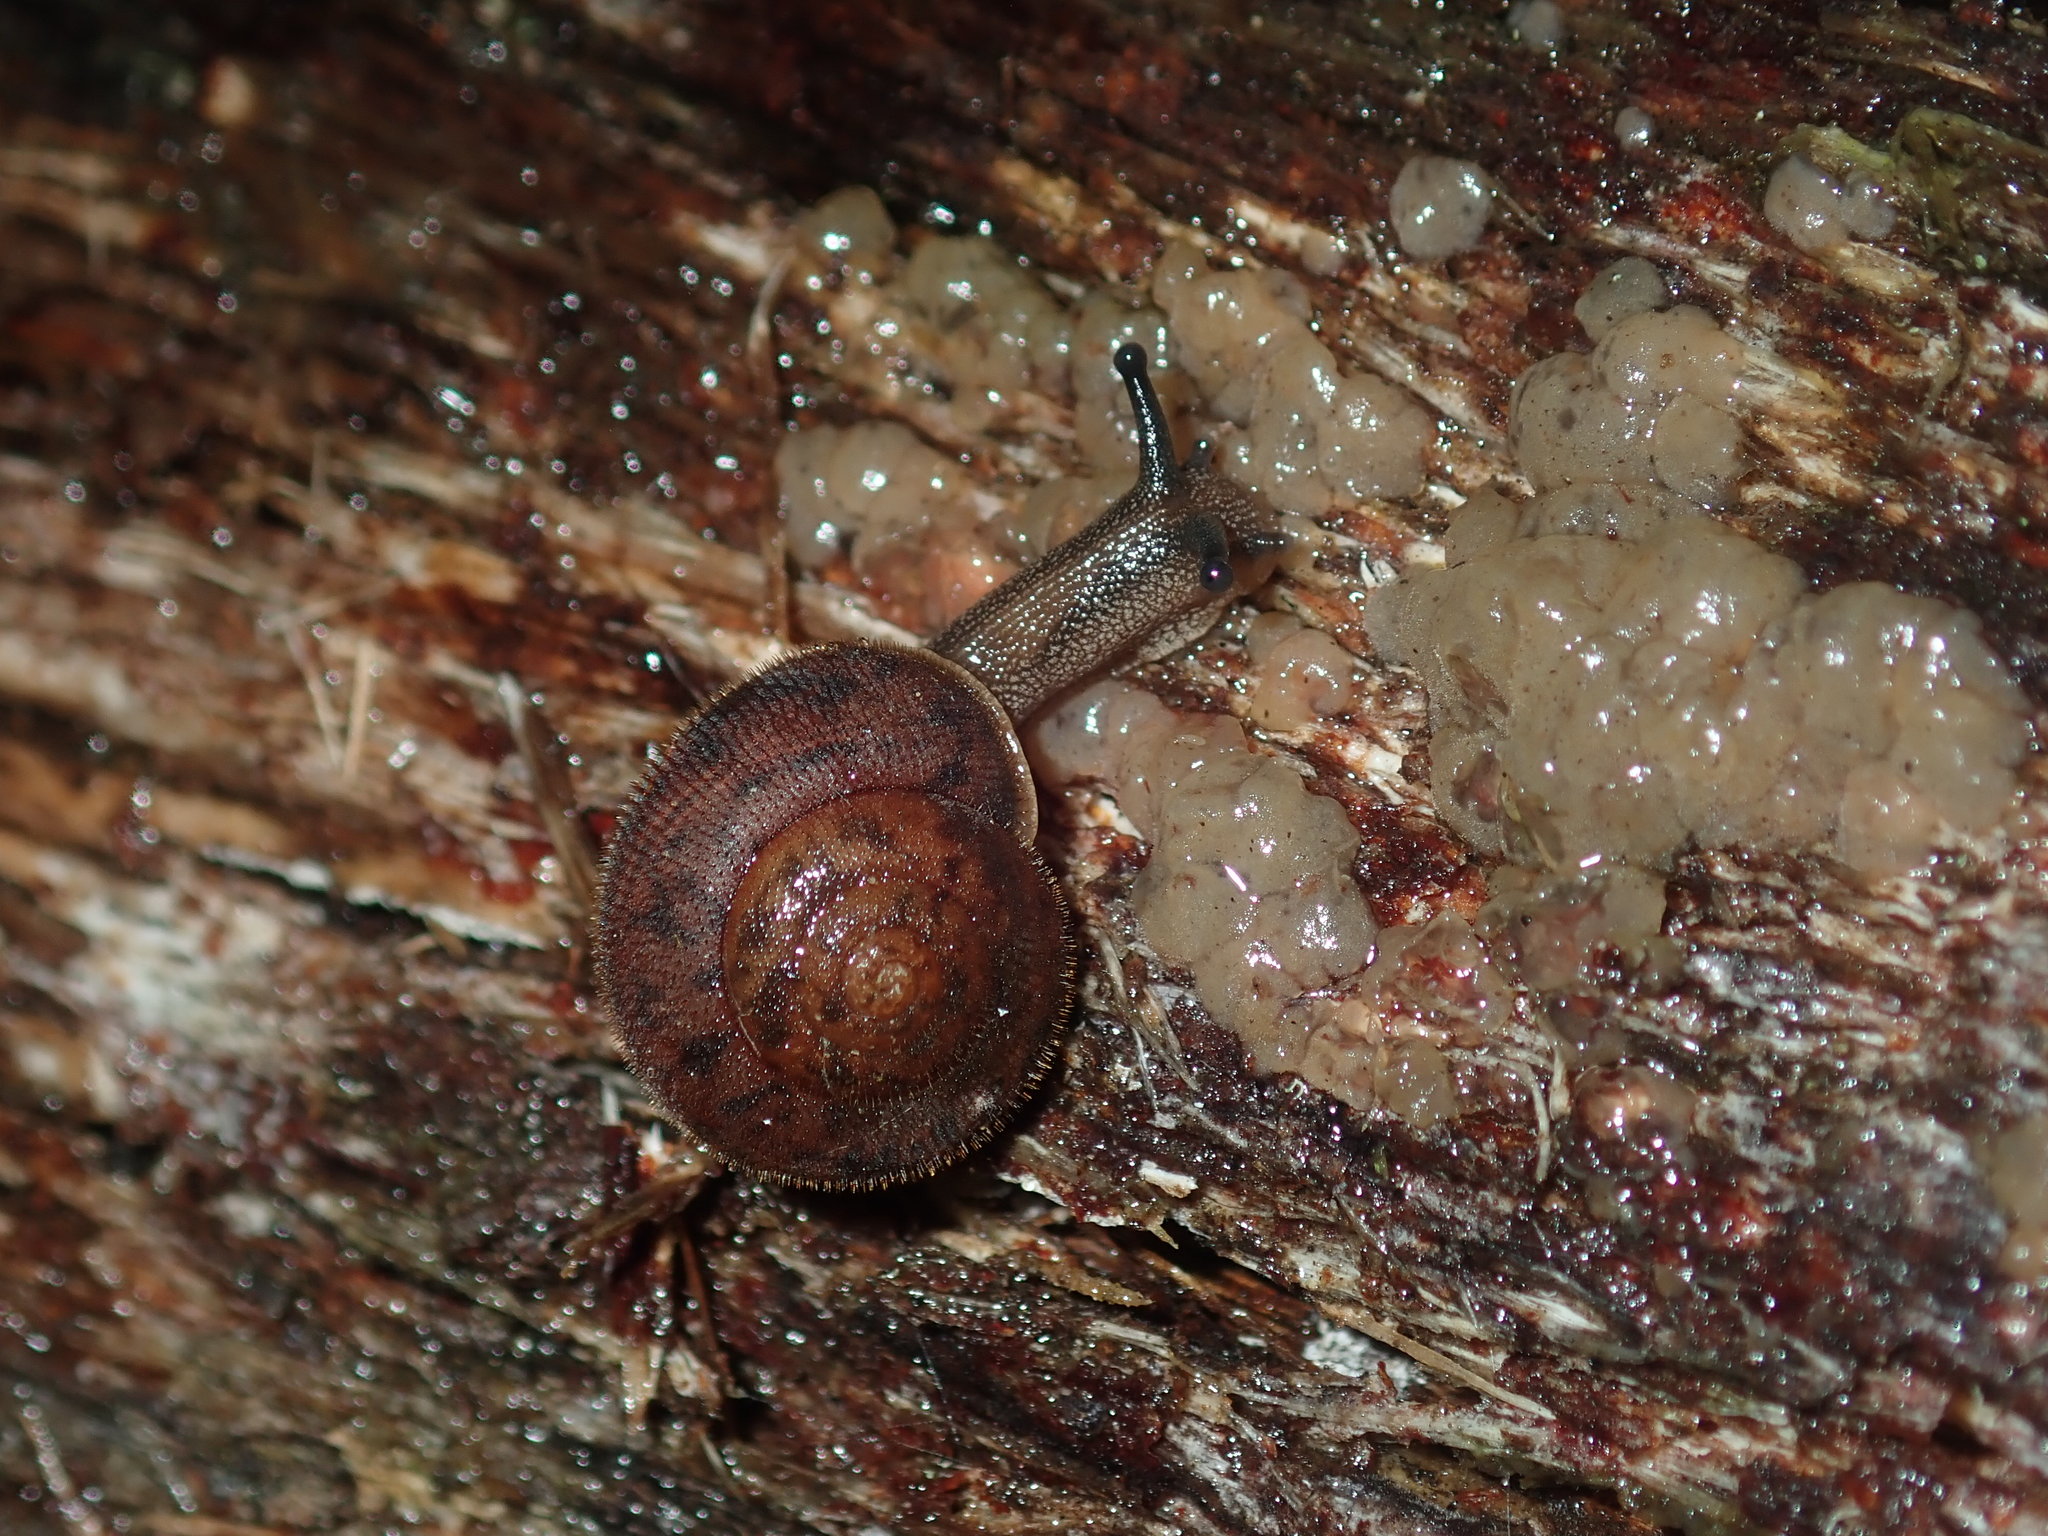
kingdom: Animalia
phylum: Mollusca
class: Gastropoda
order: Stylommatophora
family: Camaenidae
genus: Austrochloritis
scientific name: Austrochloritis wollemiensis
